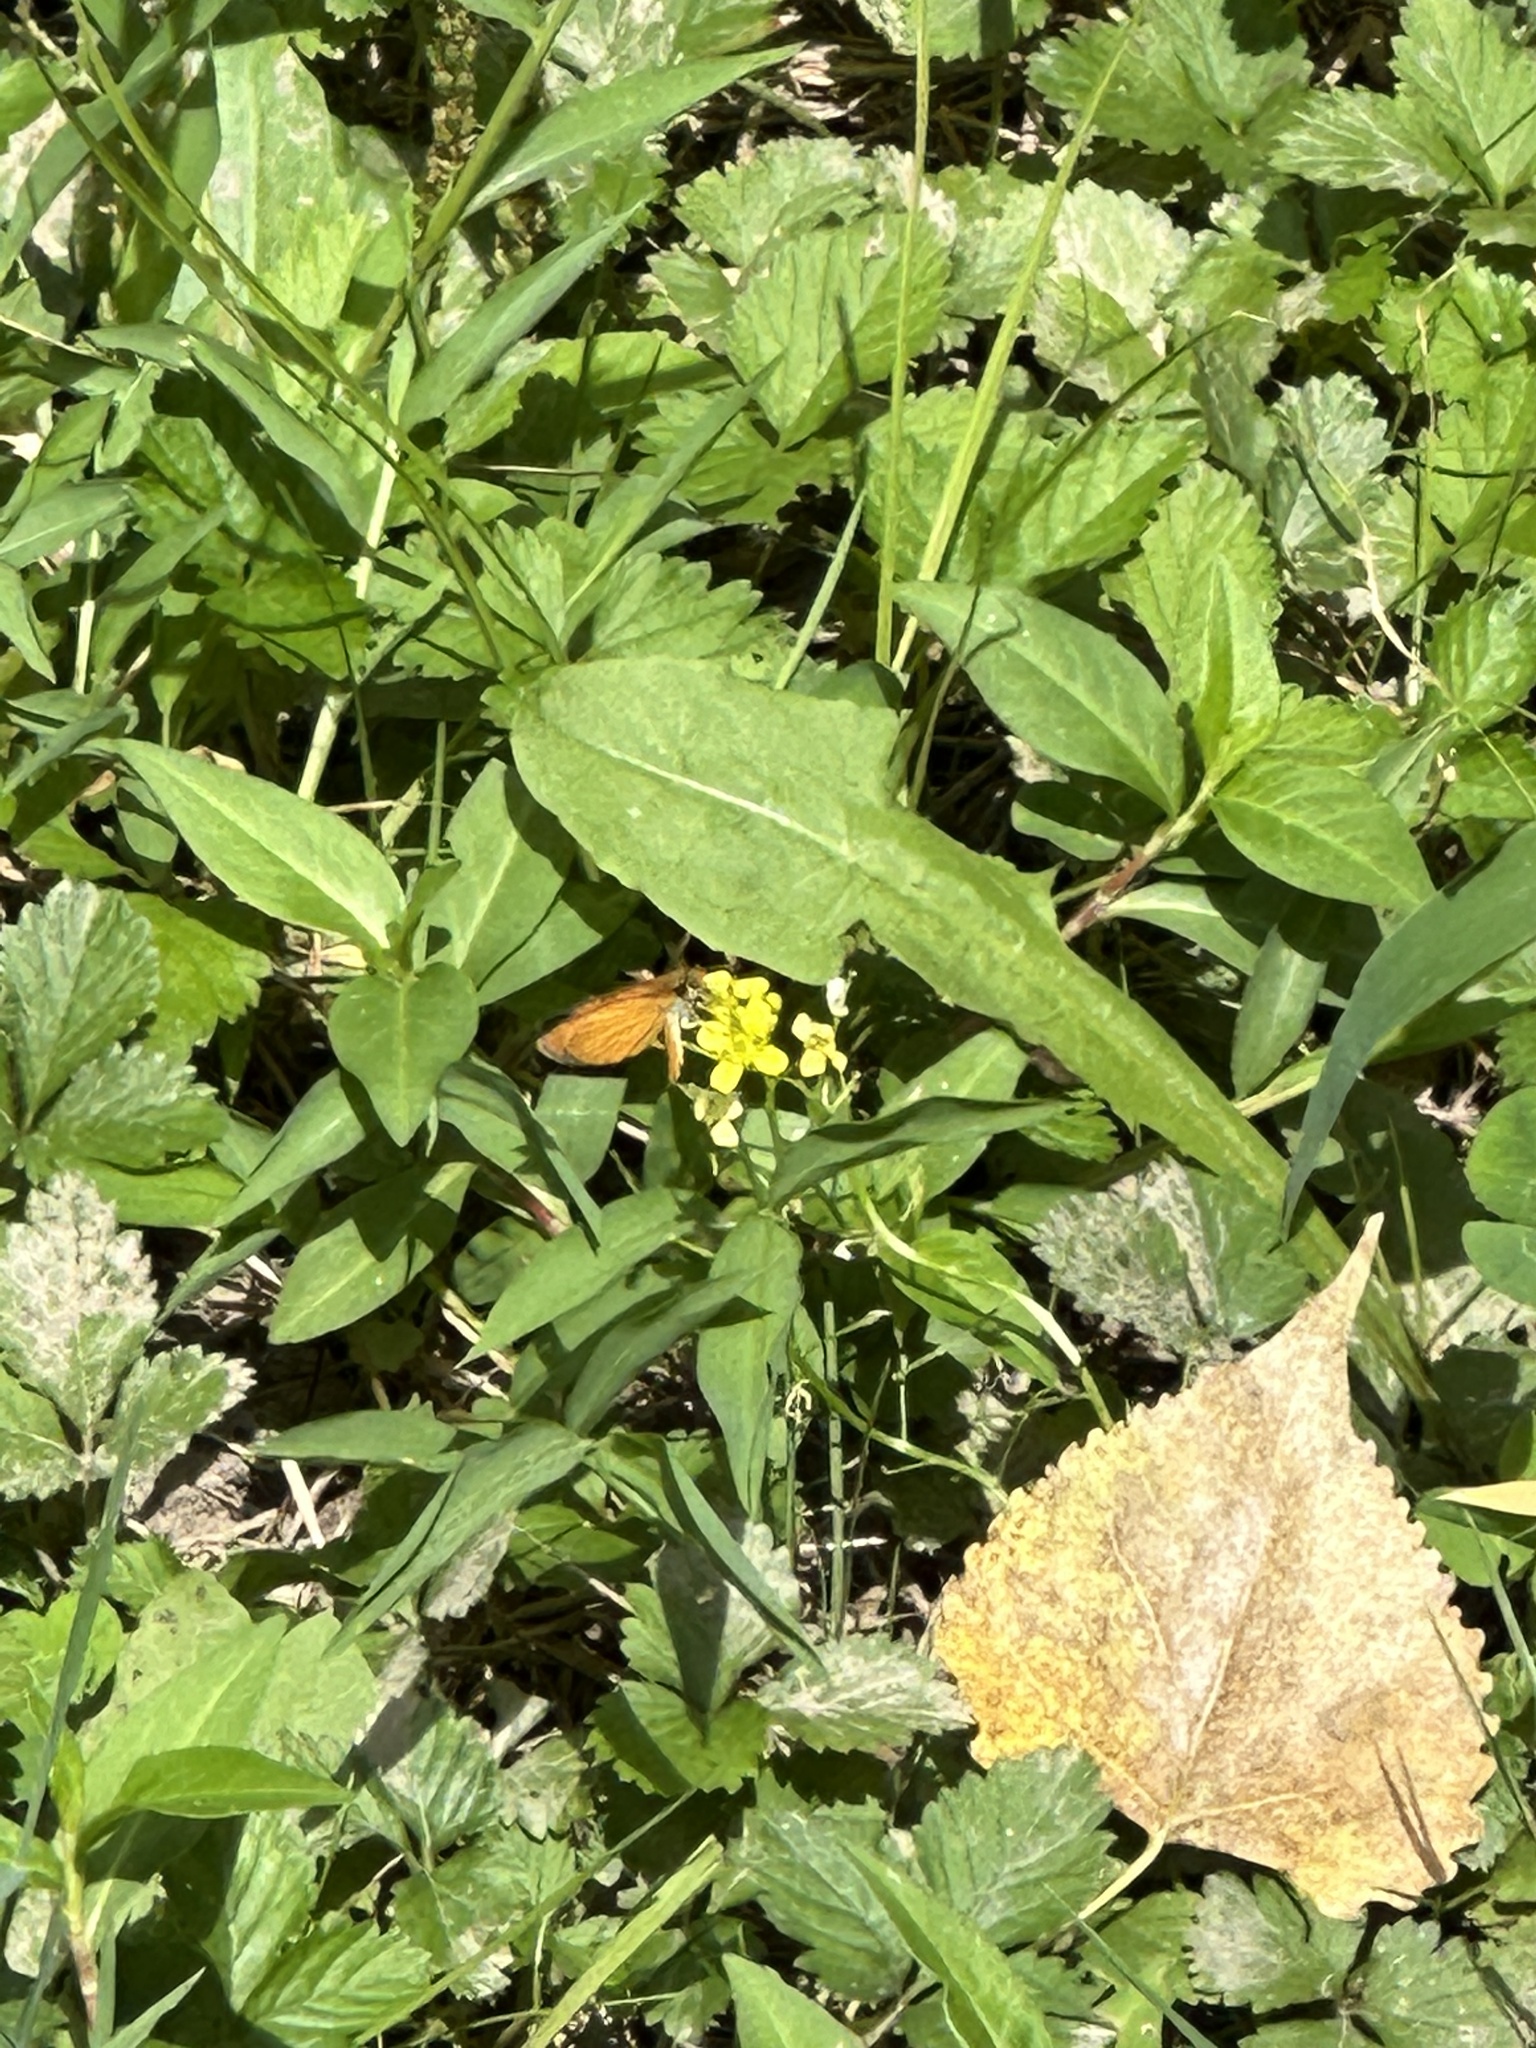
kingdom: Animalia
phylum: Arthropoda
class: Insecta
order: Lepidoptera
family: Hesperiidae
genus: Ancyloxypha
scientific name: Ancyloxypha numitor
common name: Least skipper
